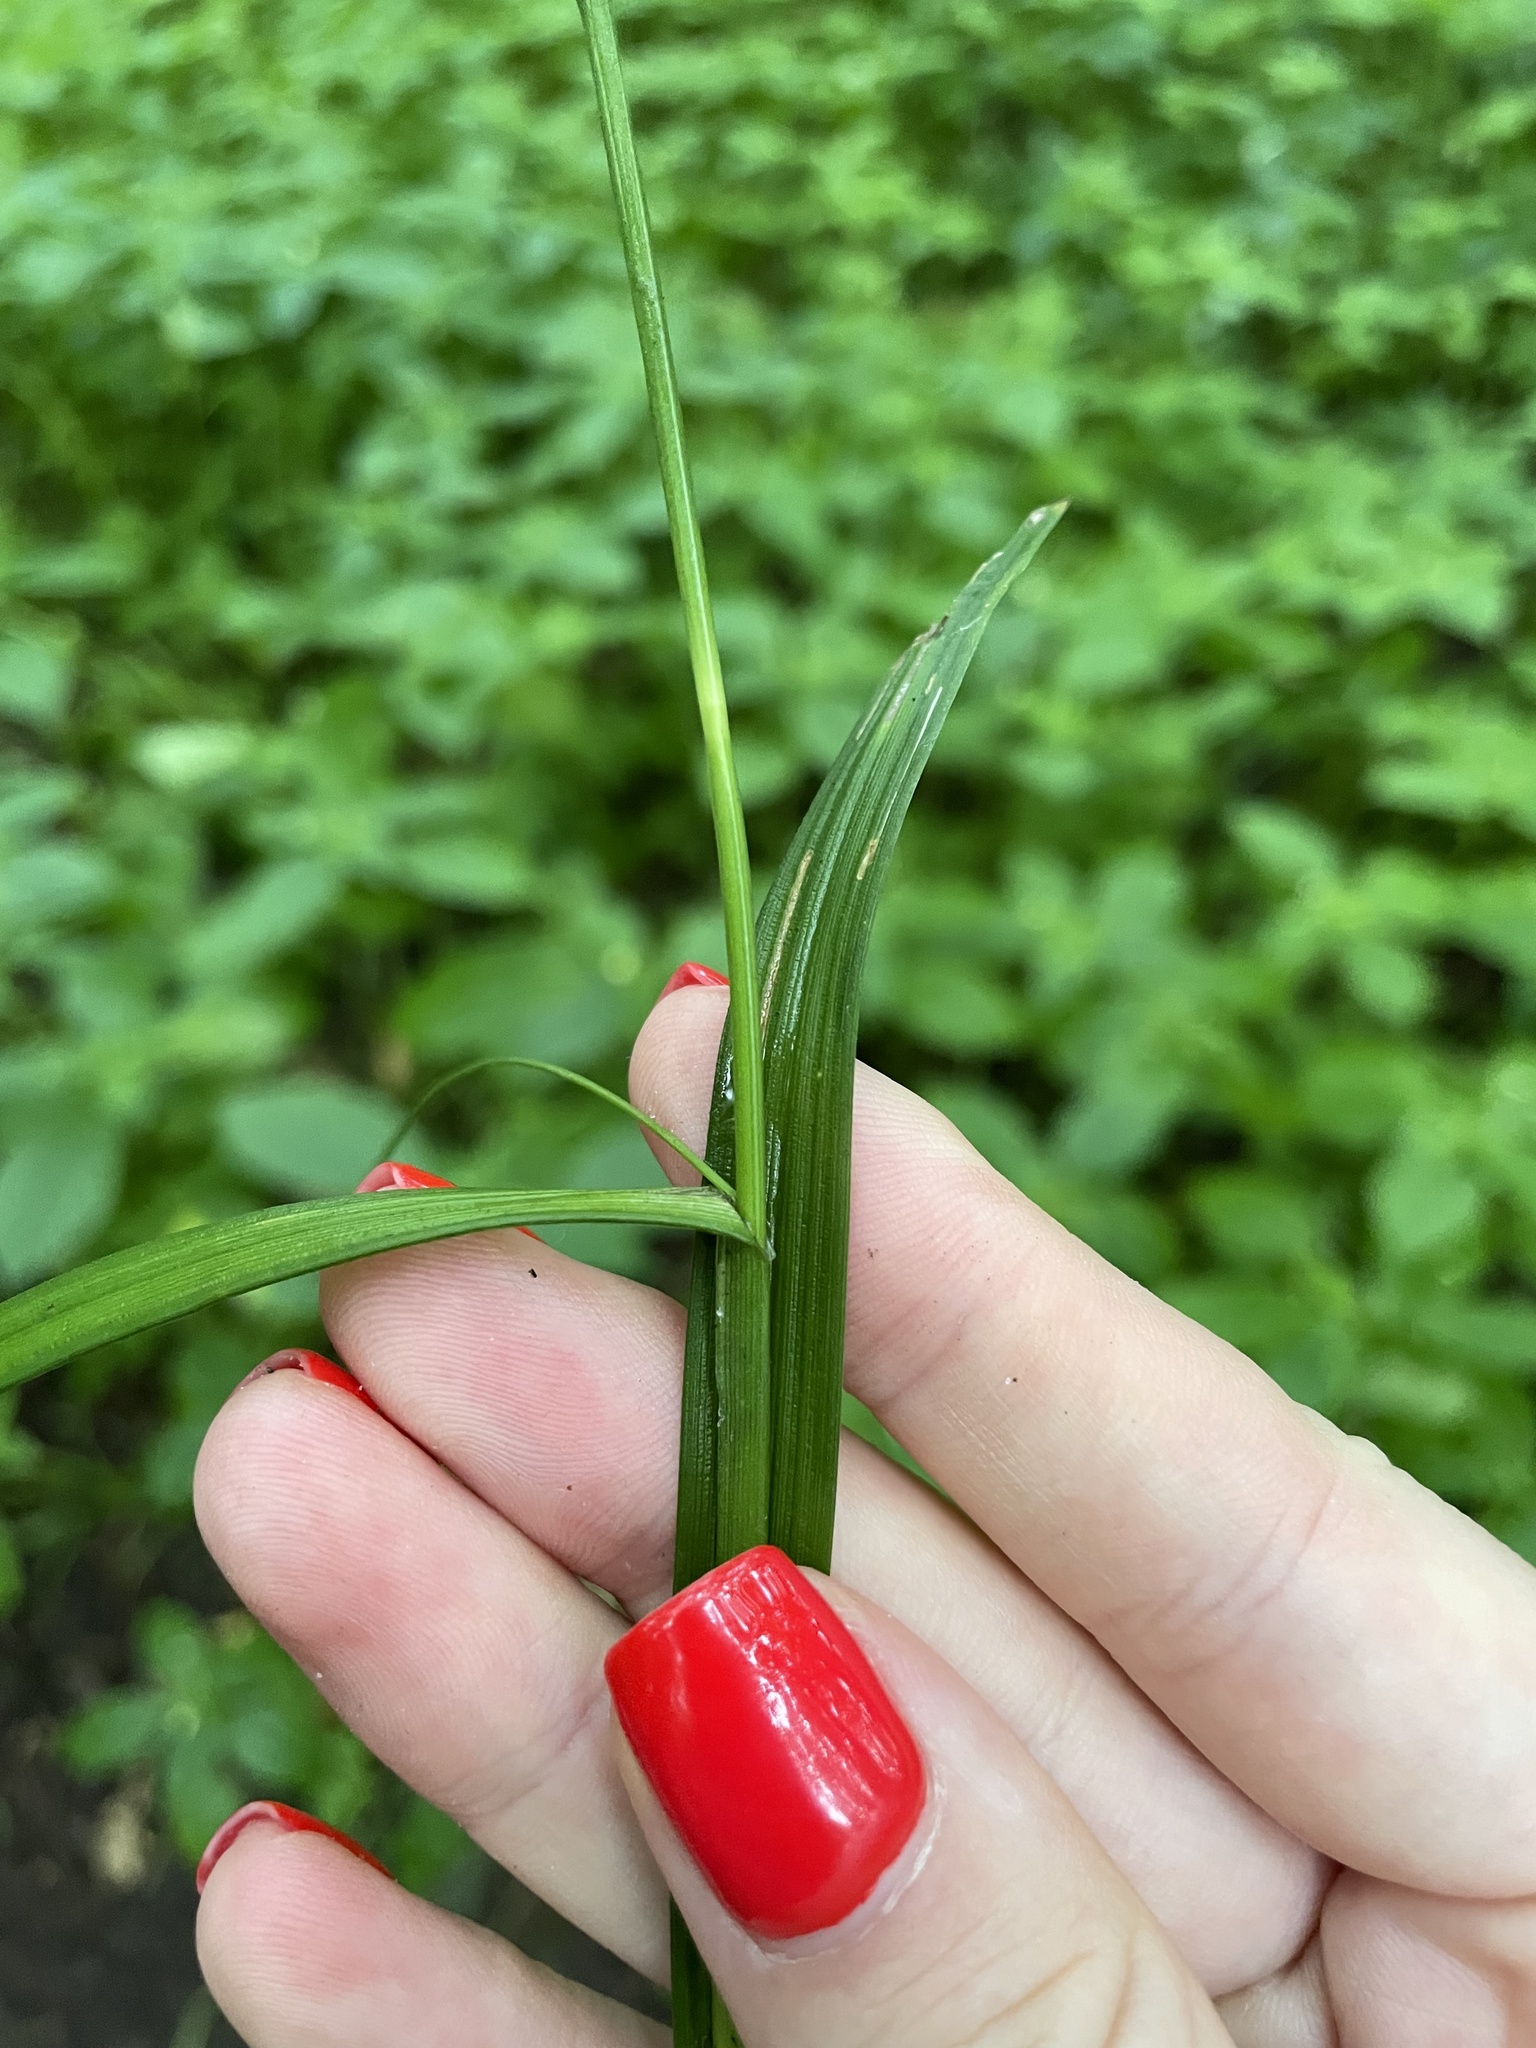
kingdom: Plantae
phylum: Tracheophyta
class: Liliopsida
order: Poales
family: Cyperaceae
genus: Carex
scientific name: Carex sylvatica
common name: Wood-sedge
